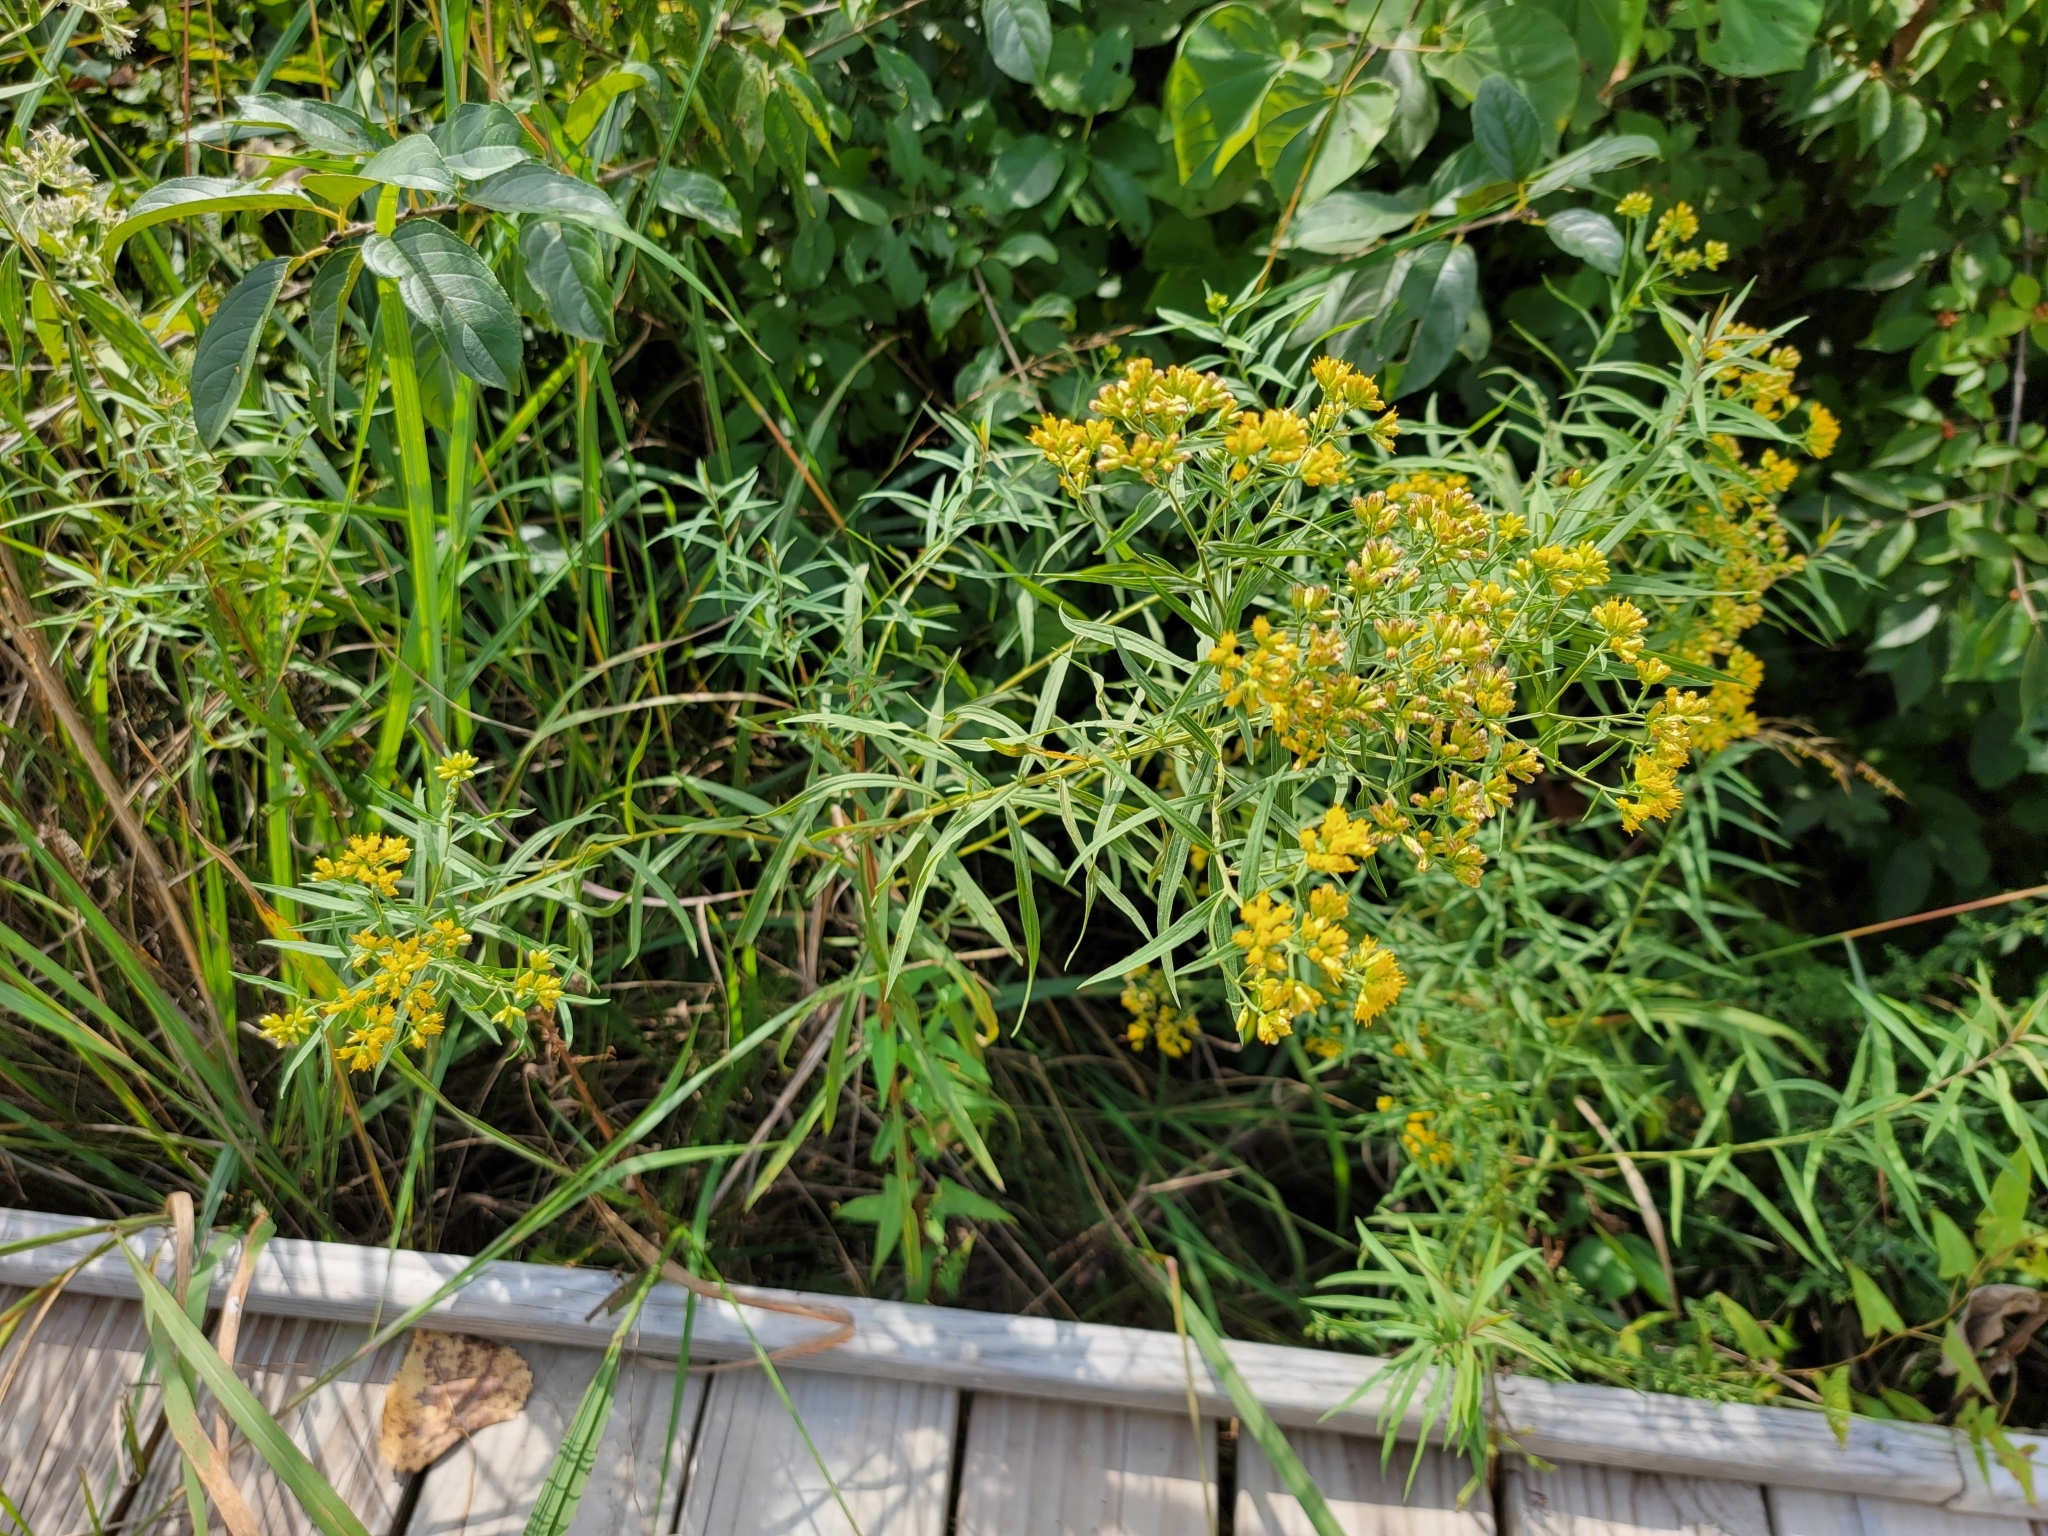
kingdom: Plantae
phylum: Tracheophyta
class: Magnoliopsida
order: Asterales
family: Asteraceae
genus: Euthamia
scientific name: Euthamia graminifolia
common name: Common goldentop
